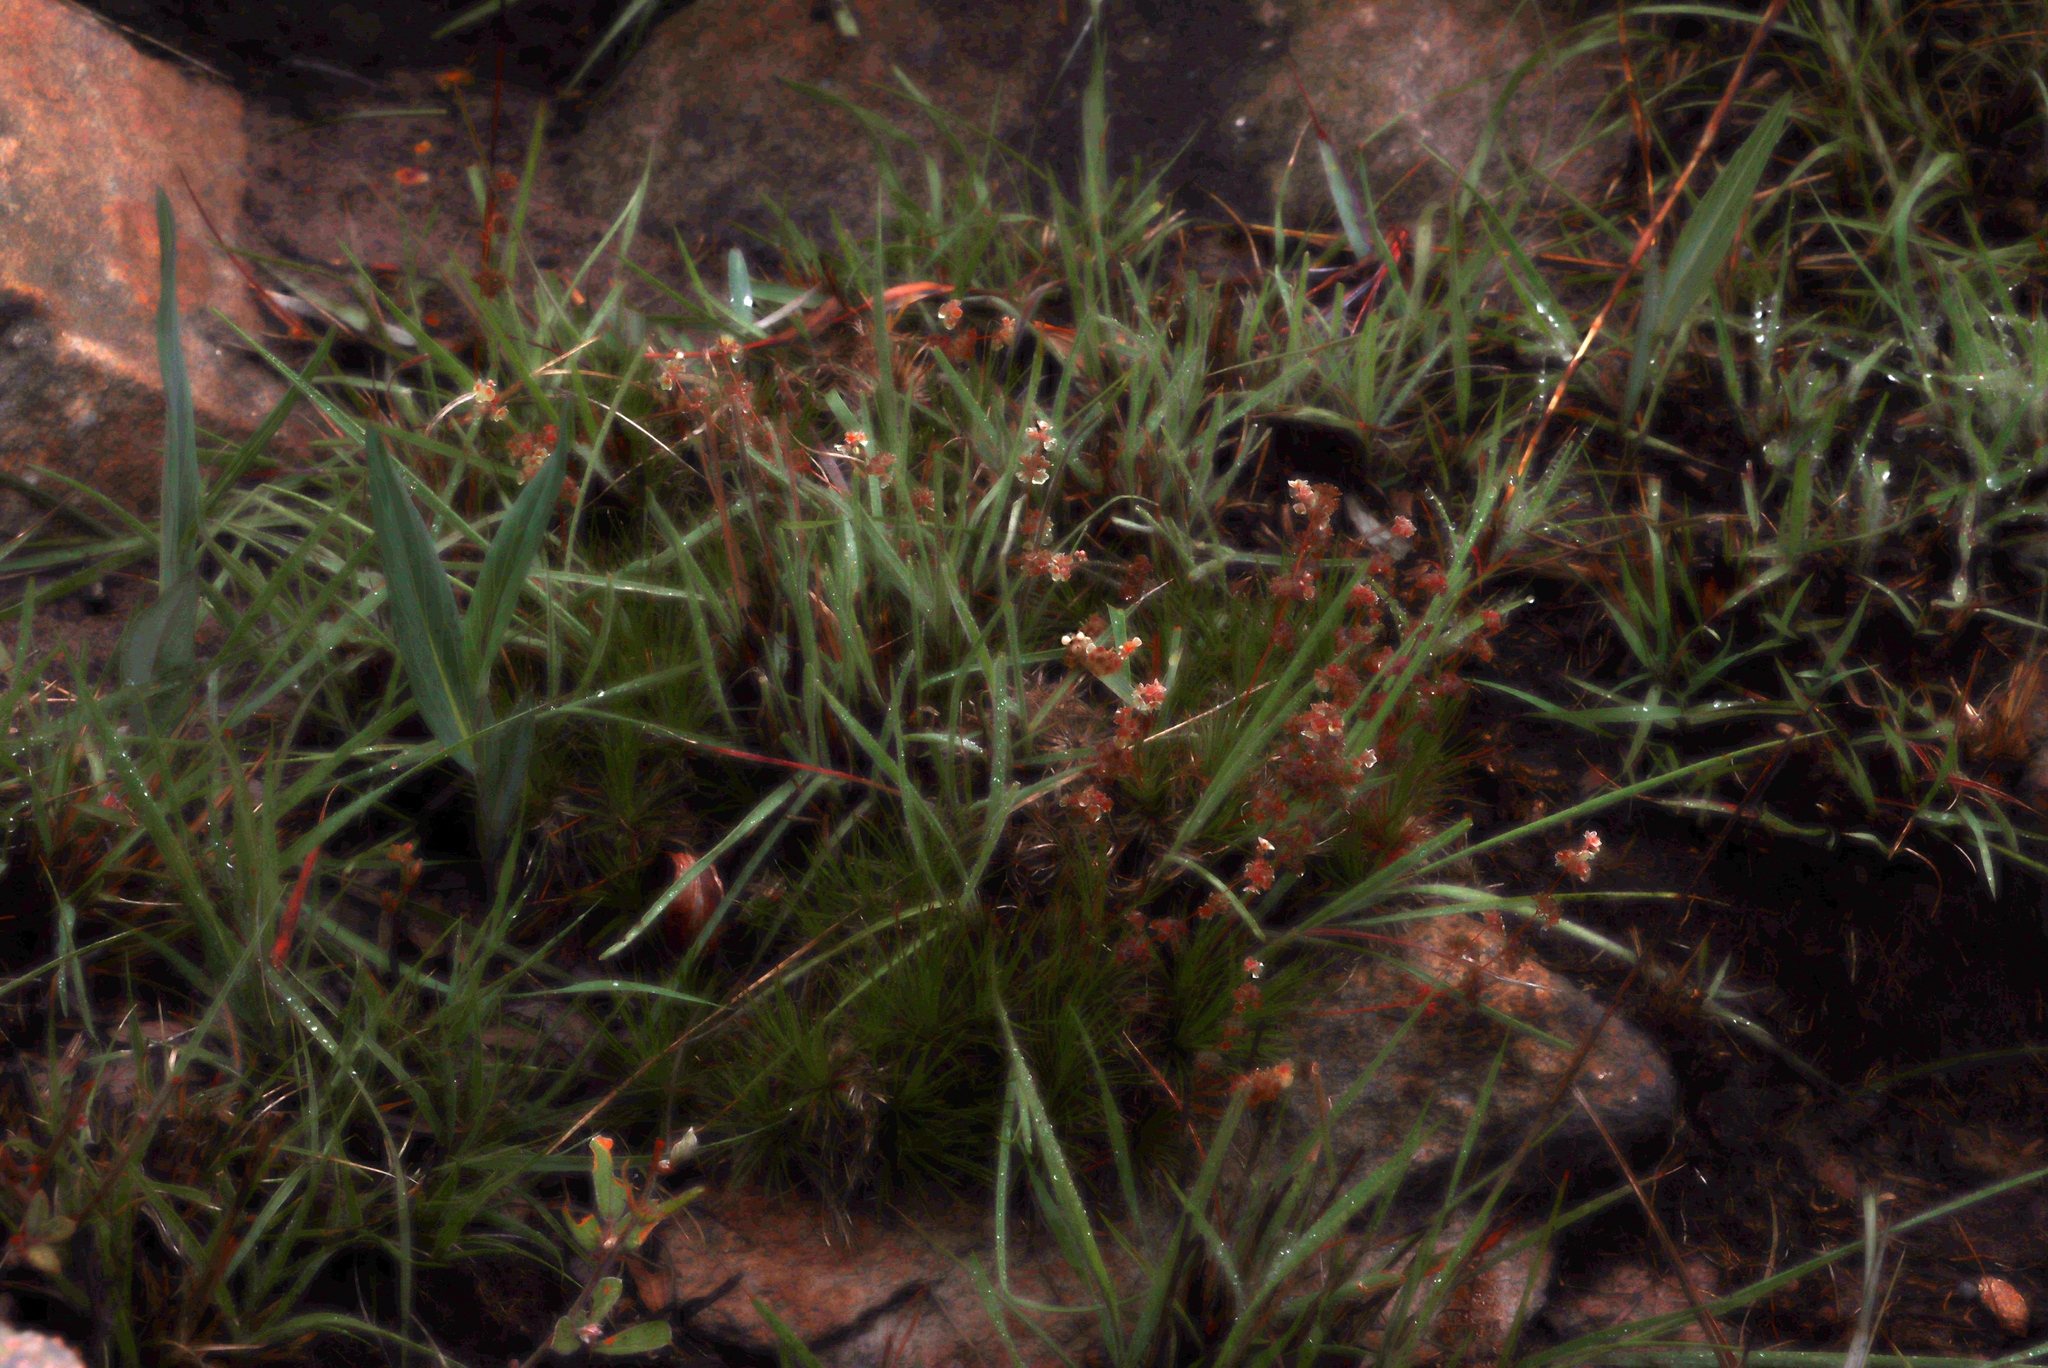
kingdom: Plantae
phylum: Tracheophyta
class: Magnoliopsida
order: Caryophyllales
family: Molluginaceae
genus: Psammotropha
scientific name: Psammotropha myriantha
